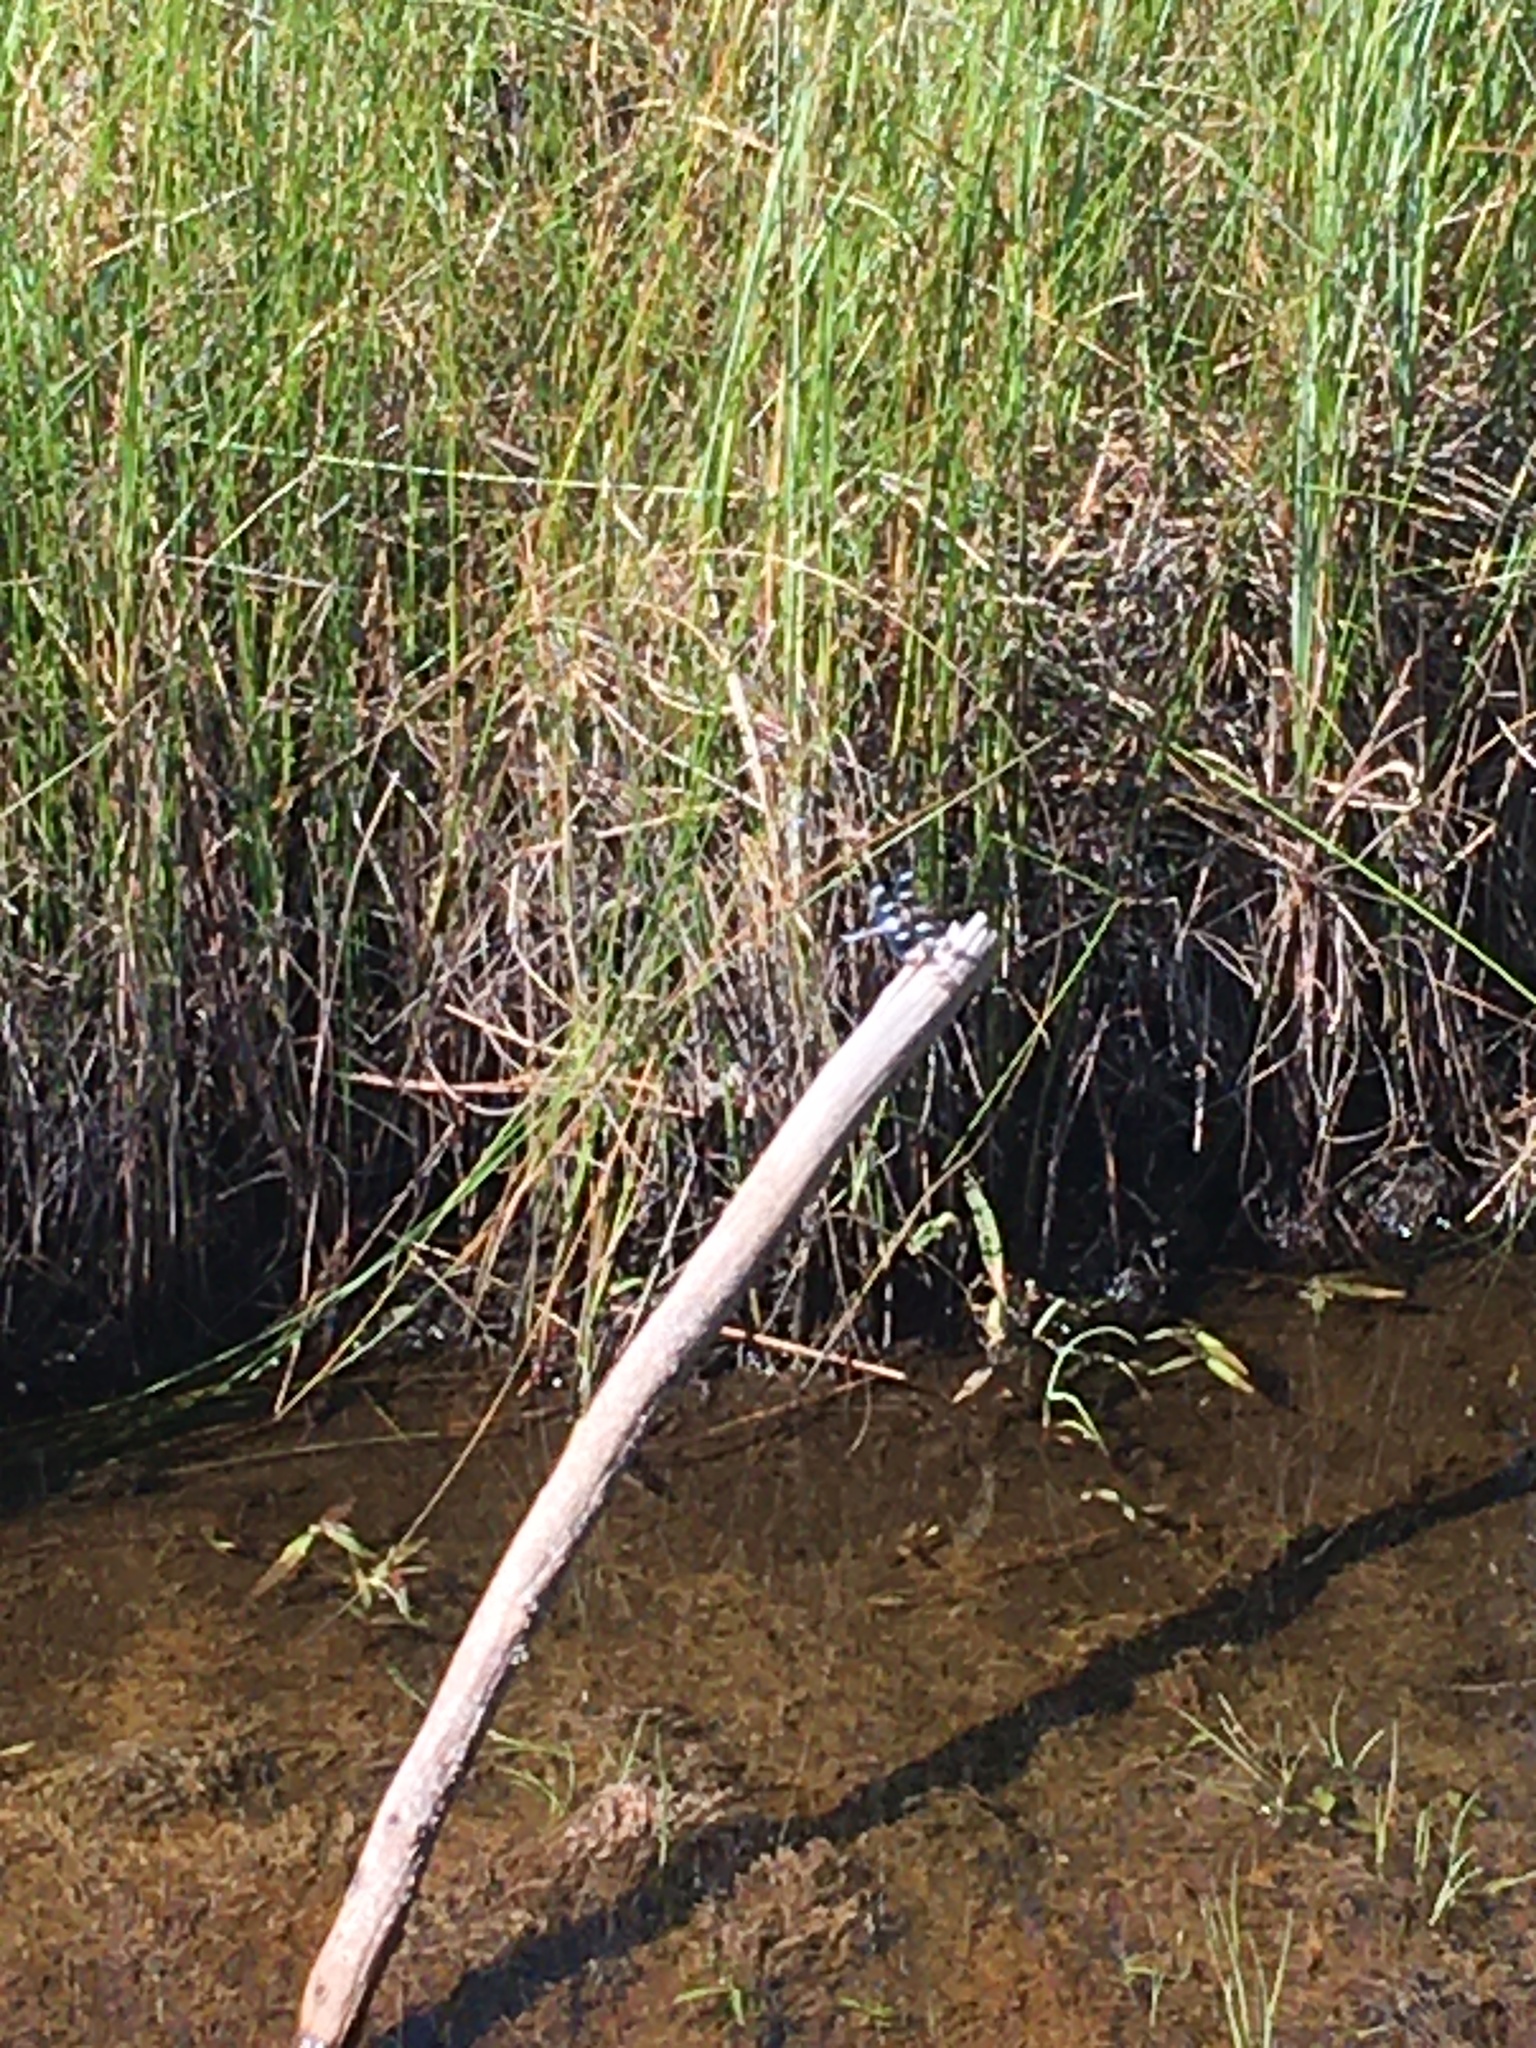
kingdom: Animalia
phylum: Arthropoda
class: Insecta
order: Odonata
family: Libellulidae
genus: Libellula
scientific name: Libellula pulchella
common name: Twelve-spotted skimmer
